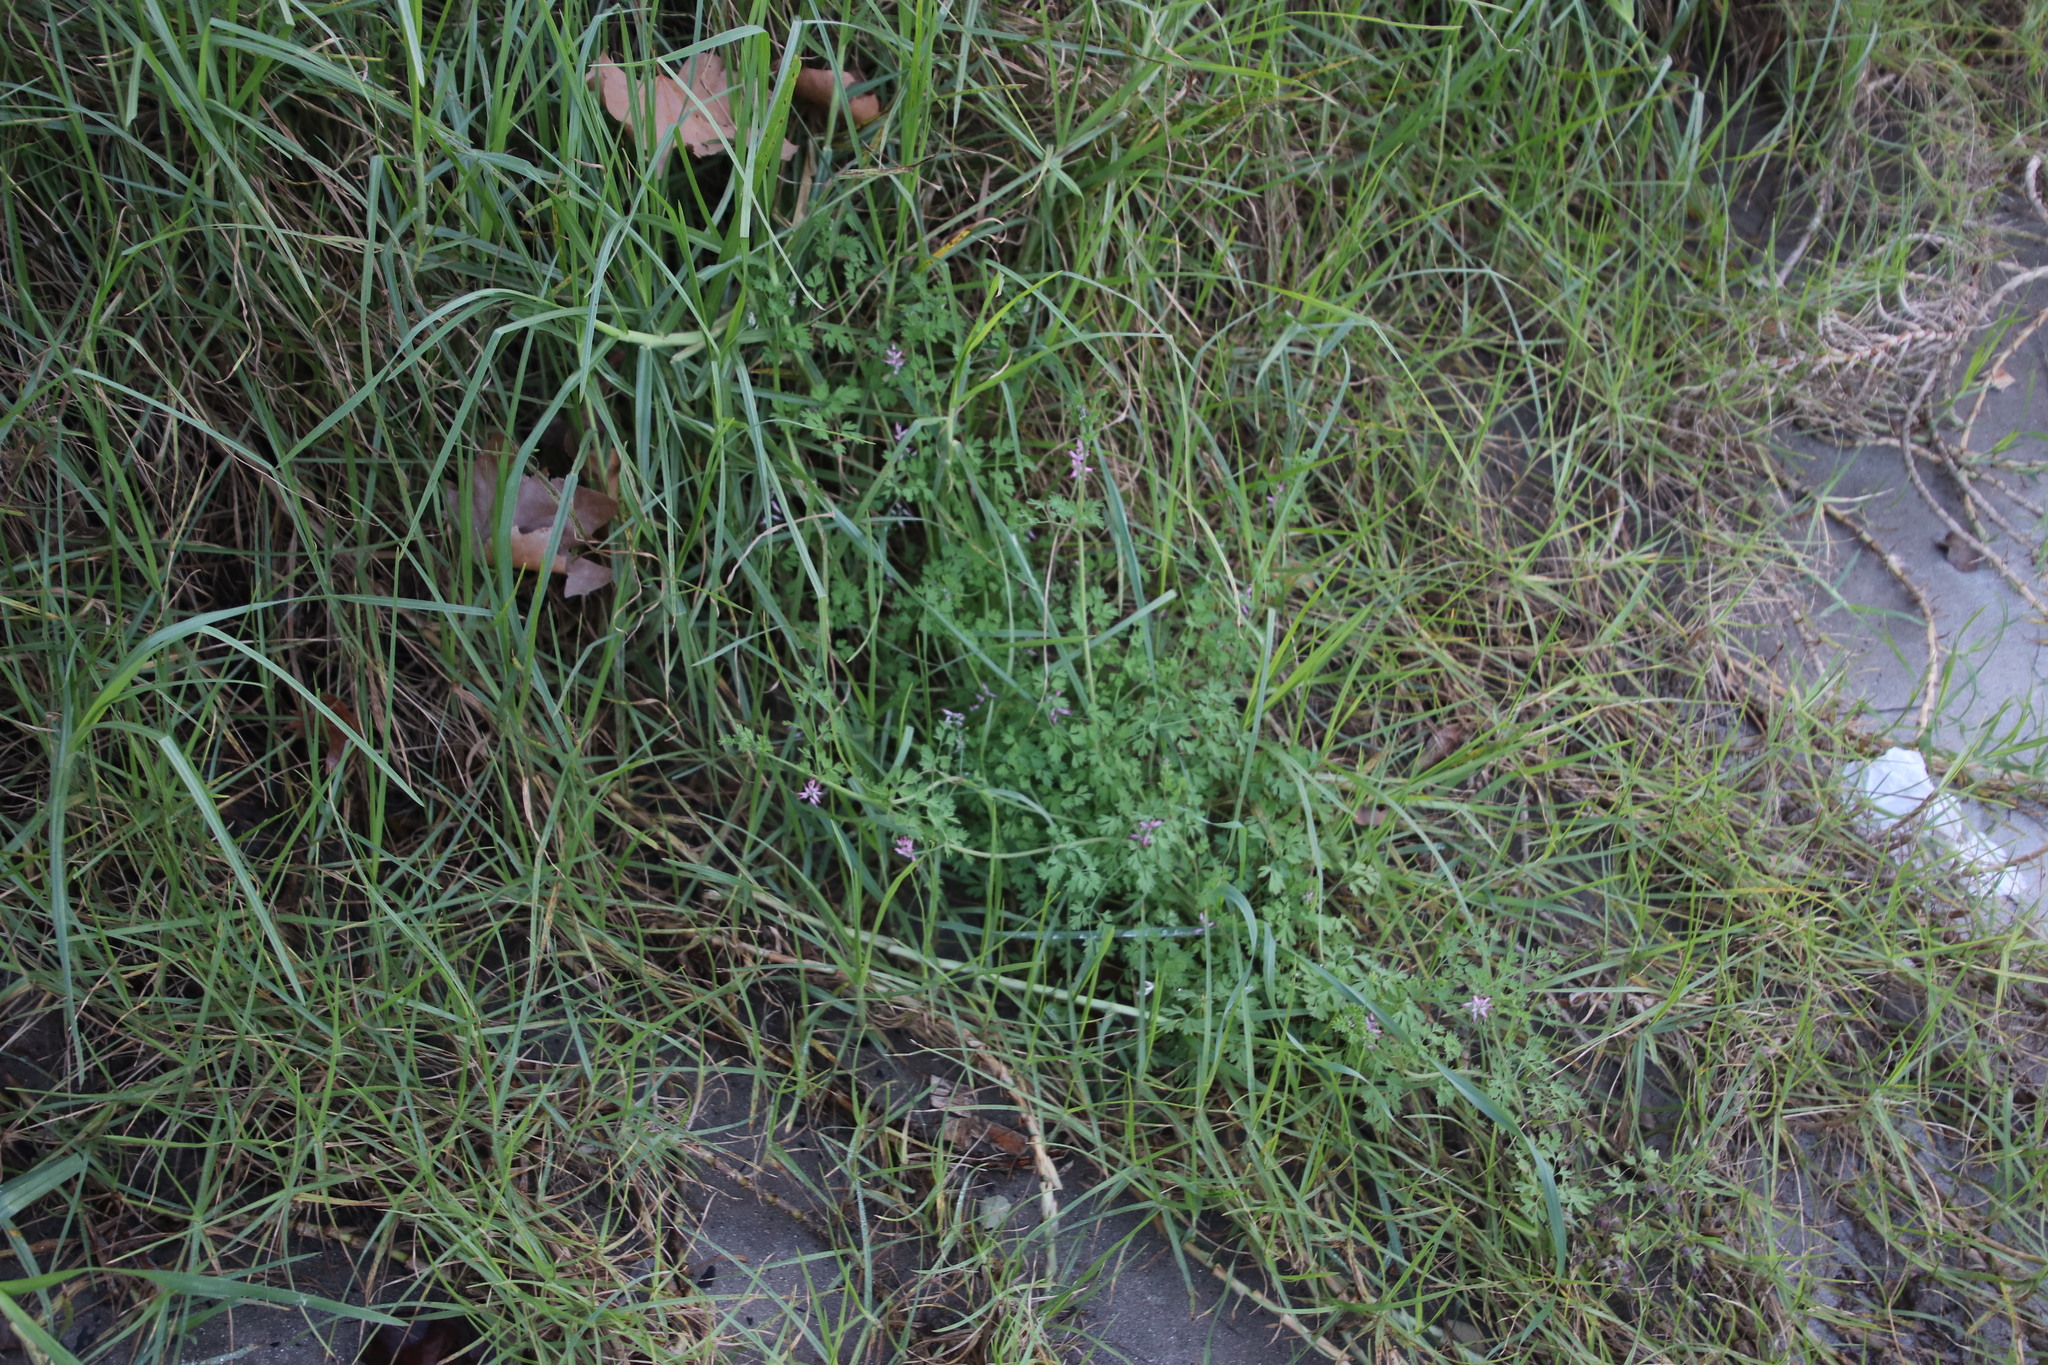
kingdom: Plantae
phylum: Tracheophyta
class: Magnoliopsida
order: Ranunculales
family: Papaveraceae
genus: Fumaria
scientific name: Fumaria muralis
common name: Common ramping-fumitory
